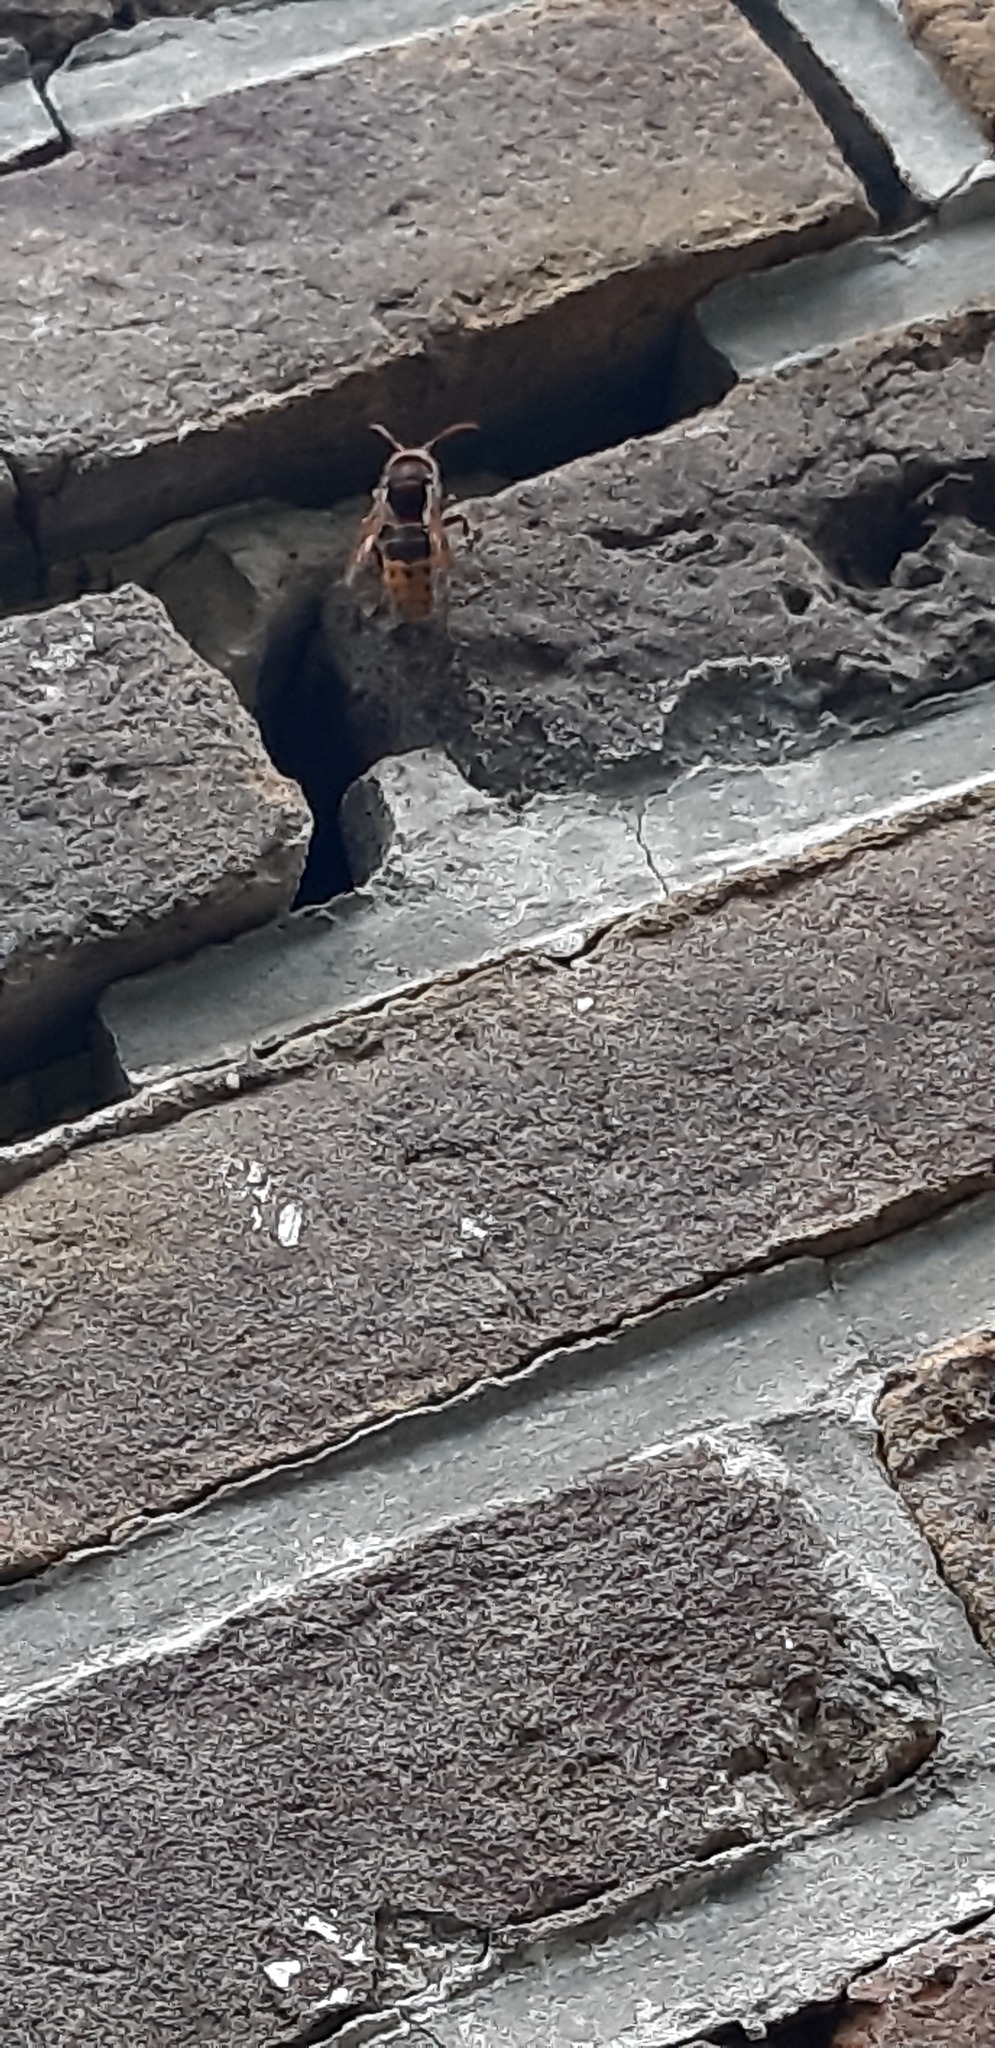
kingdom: Animalia
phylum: Arthropoda
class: Insecta
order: Hymenoptera
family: Vespidae
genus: Vespa
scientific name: Vespa crabro
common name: Hornet
